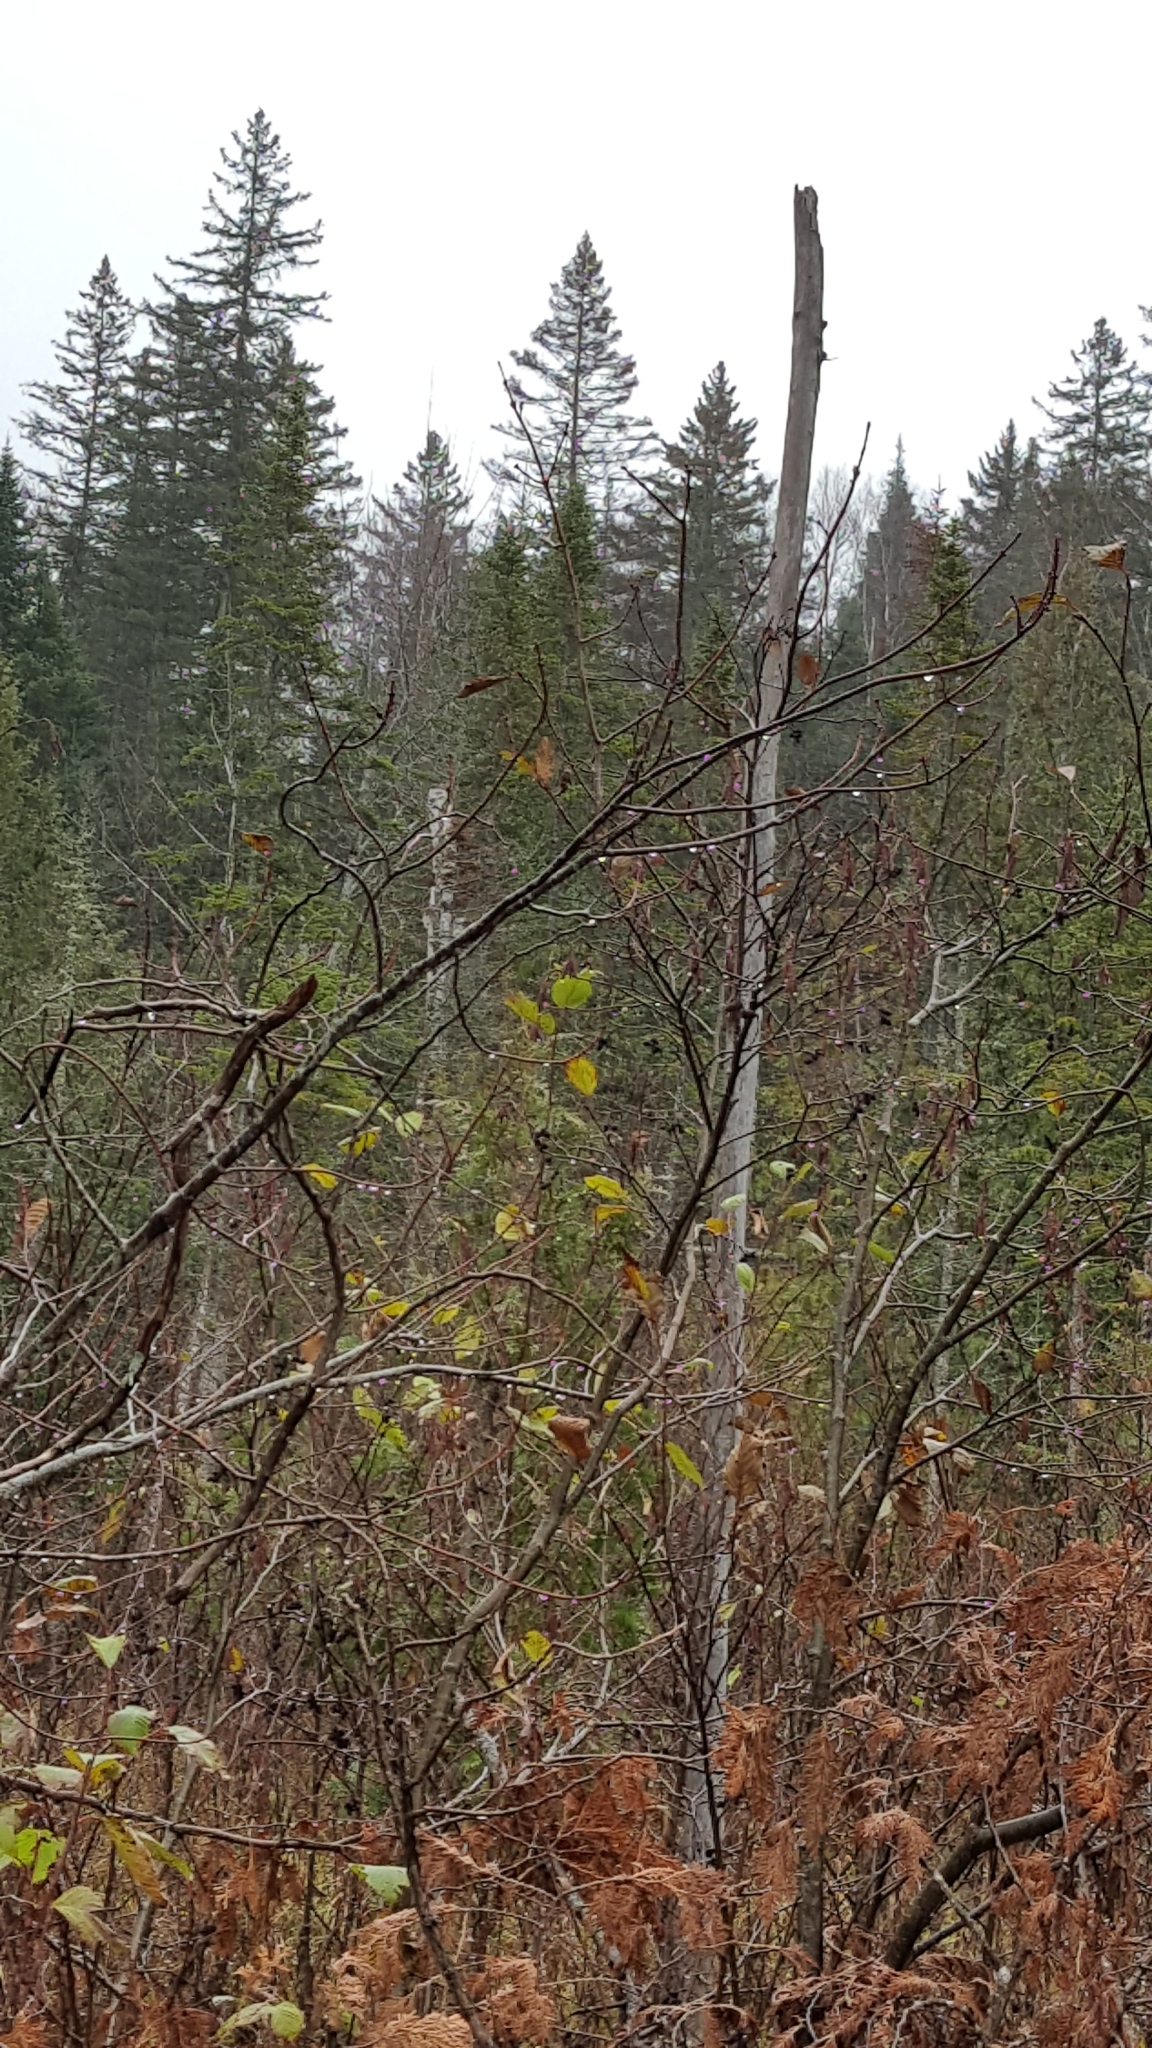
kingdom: Plantae
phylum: Tracheophyta
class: Pinopsida
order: Pinales
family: Pinaceae
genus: Abies
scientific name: Abies balsamea
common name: Balsam fir
